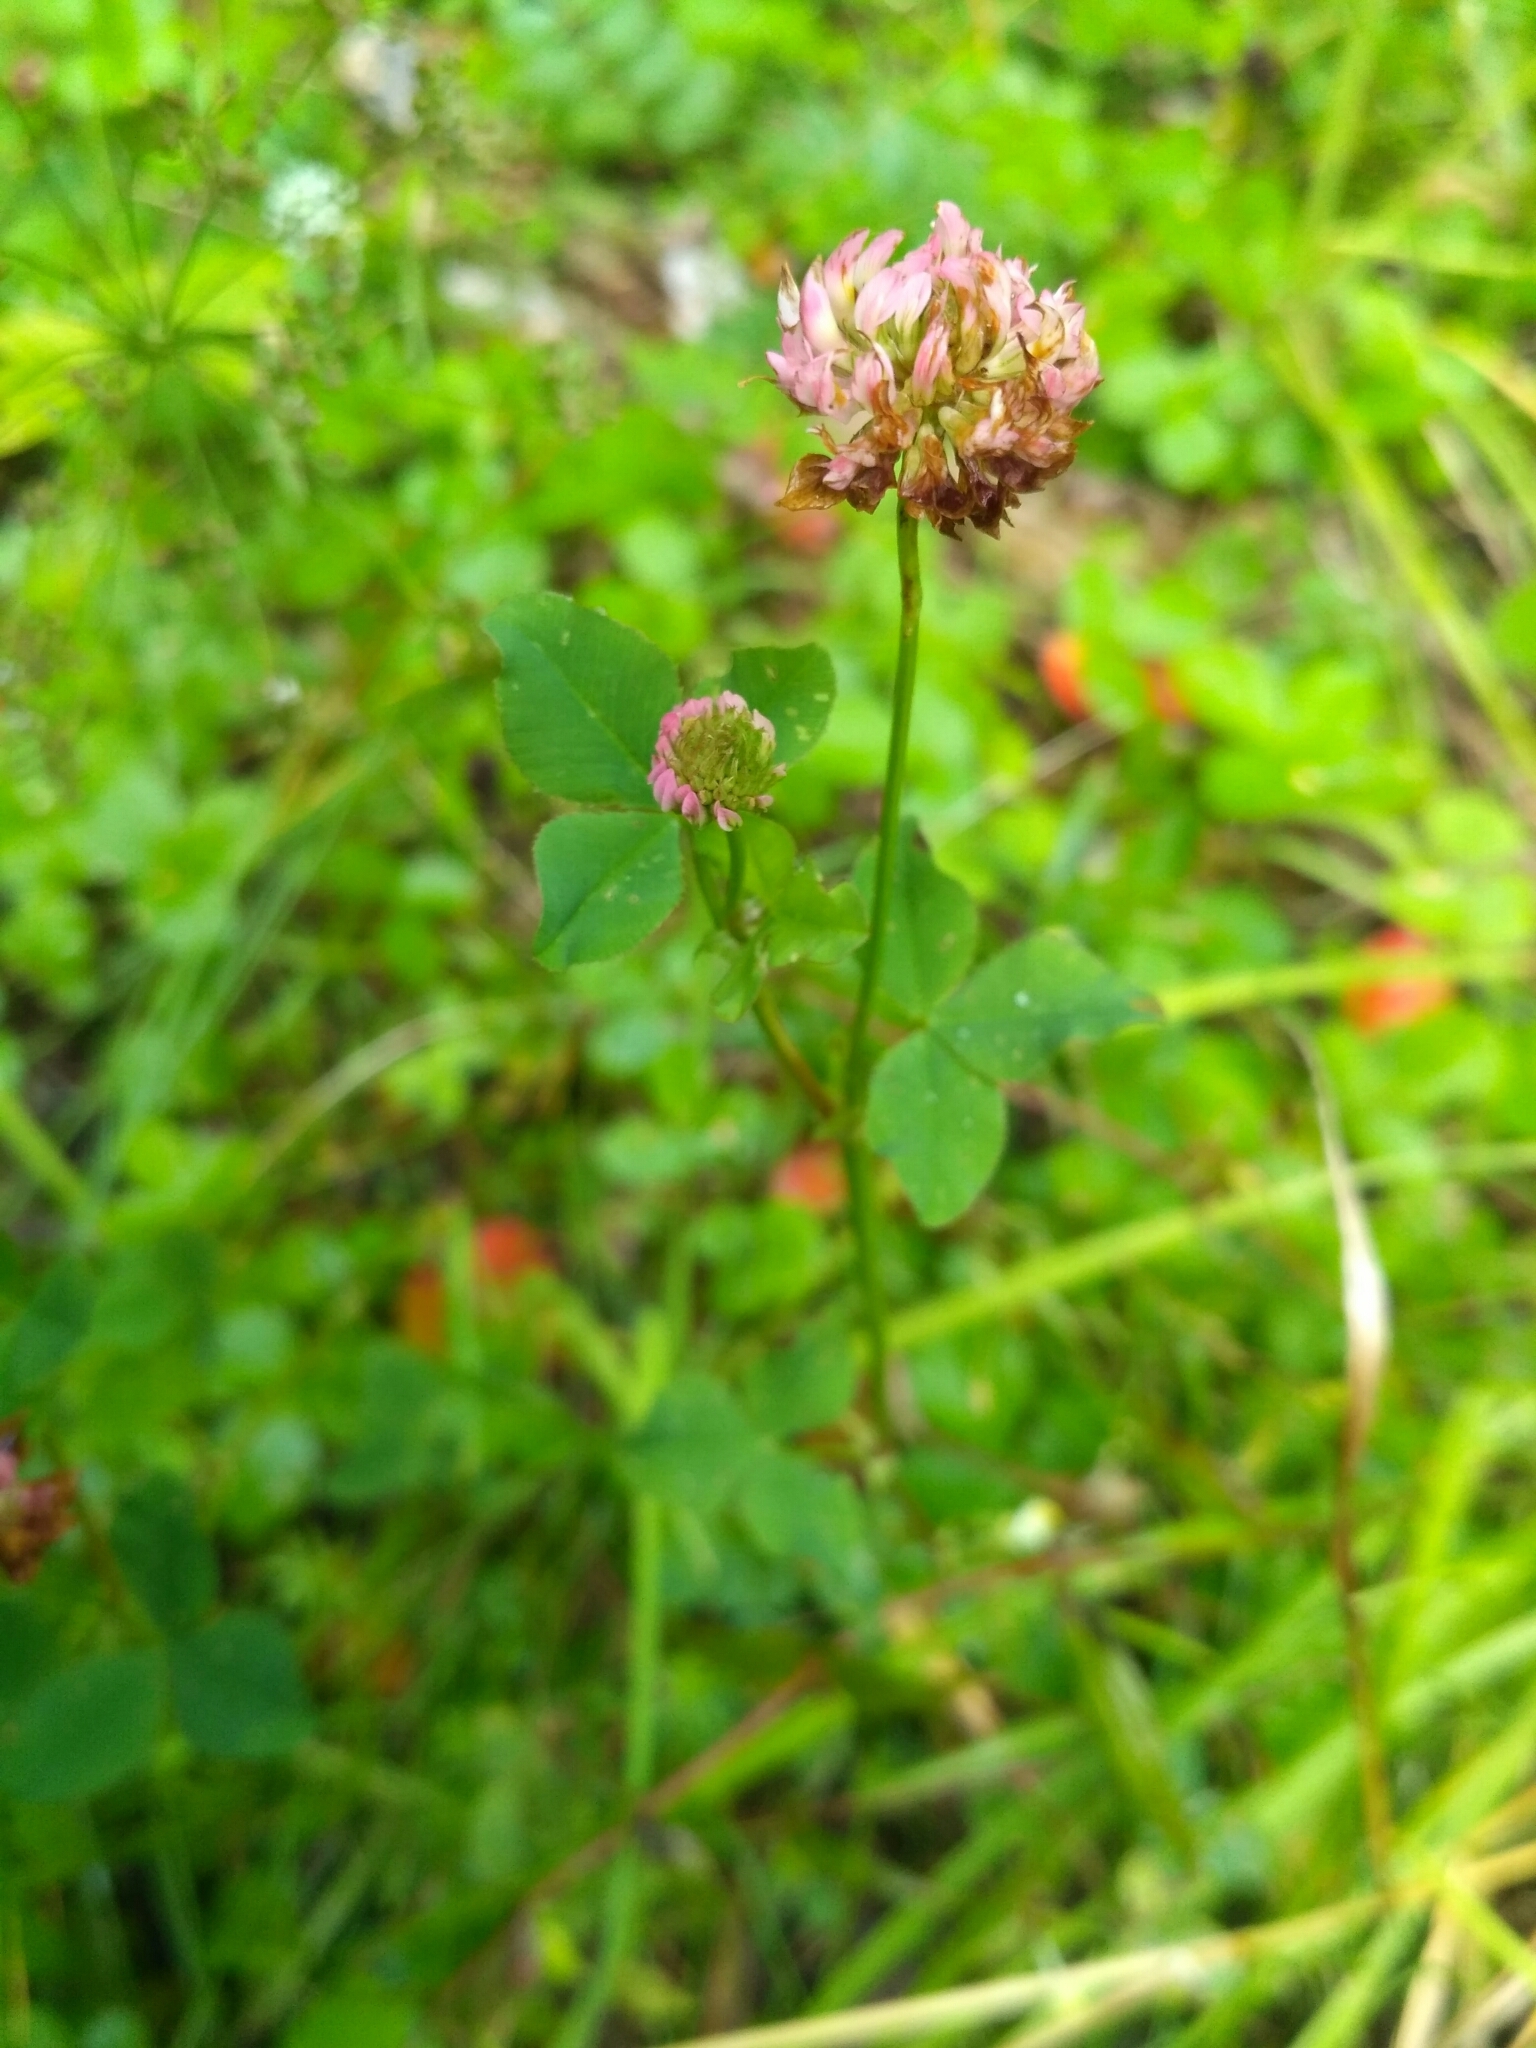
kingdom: Plantae
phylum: Tracheophyta
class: Magnoliopsida
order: Fabales
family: Fabaceae
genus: Trifolium
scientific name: Trifolium hybridum
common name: Alsike clover
